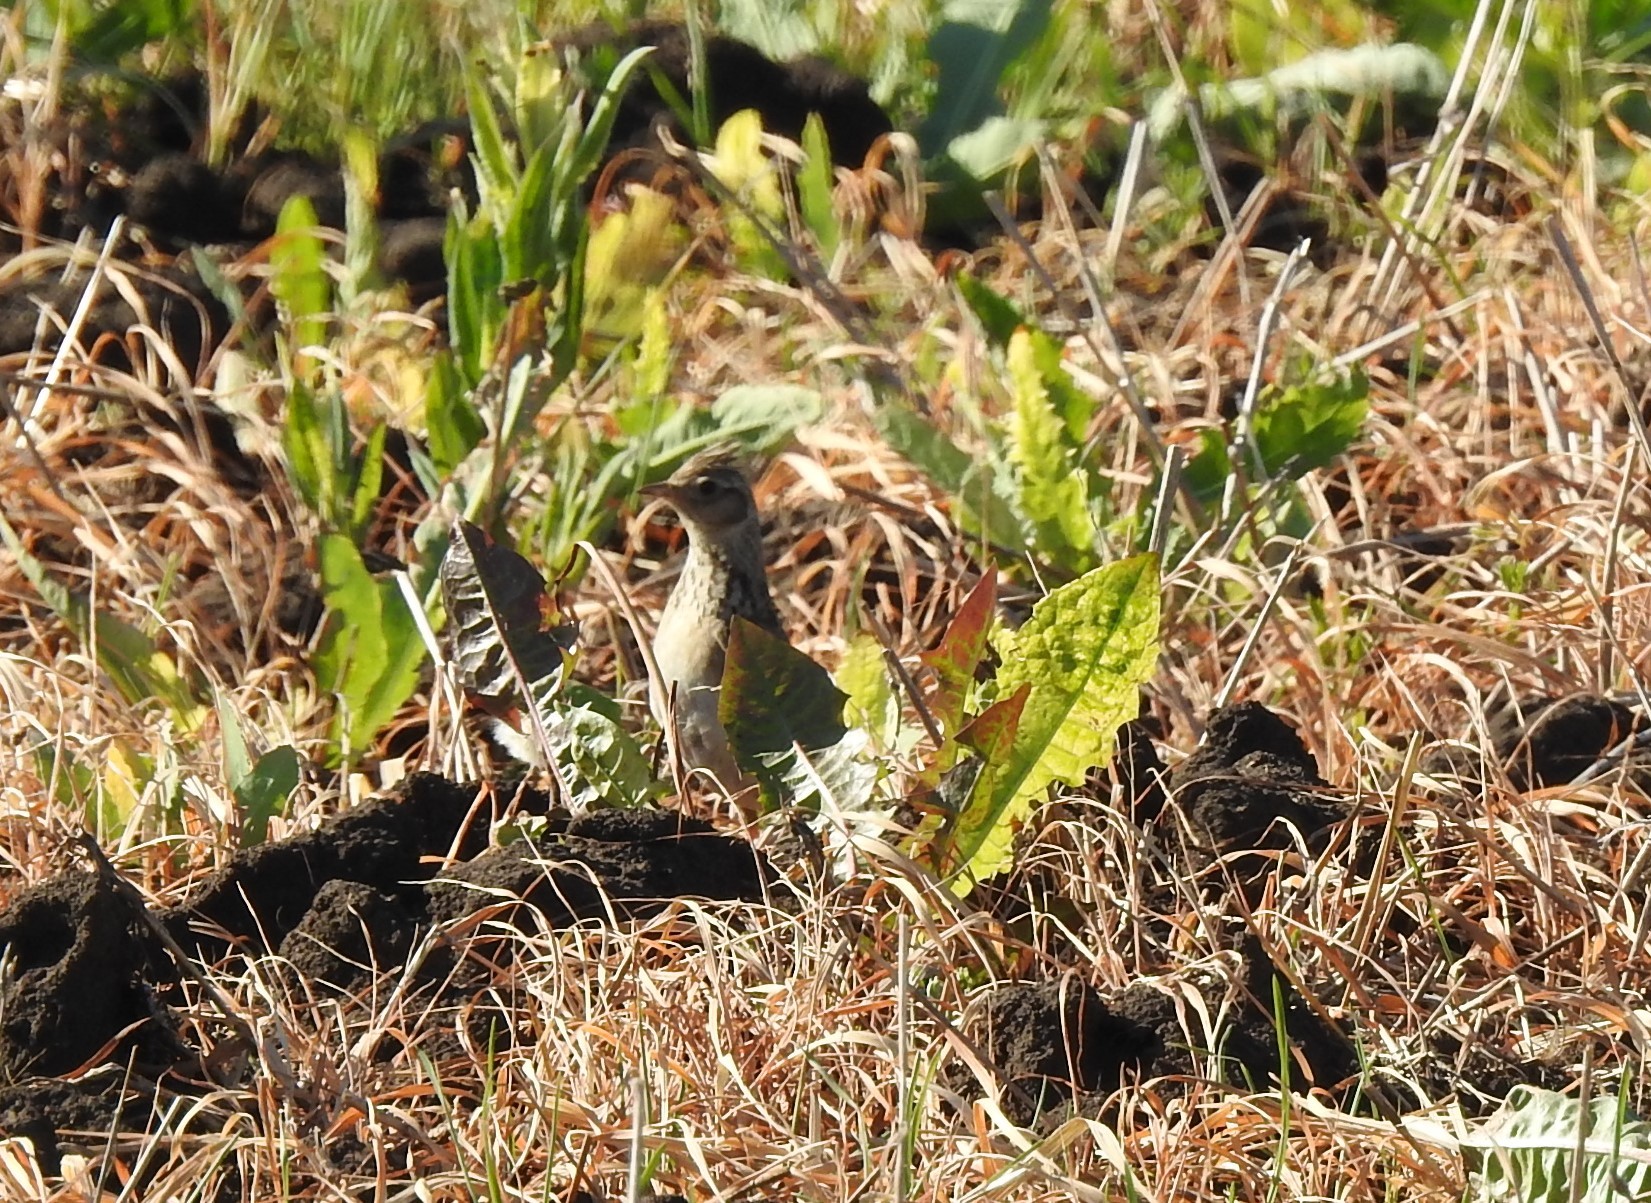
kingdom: Animalia
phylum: Chordata
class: Aves
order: Passeriformes
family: Alaudidae
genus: Alauda
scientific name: Alauda arvensis
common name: Eurasian skylark
